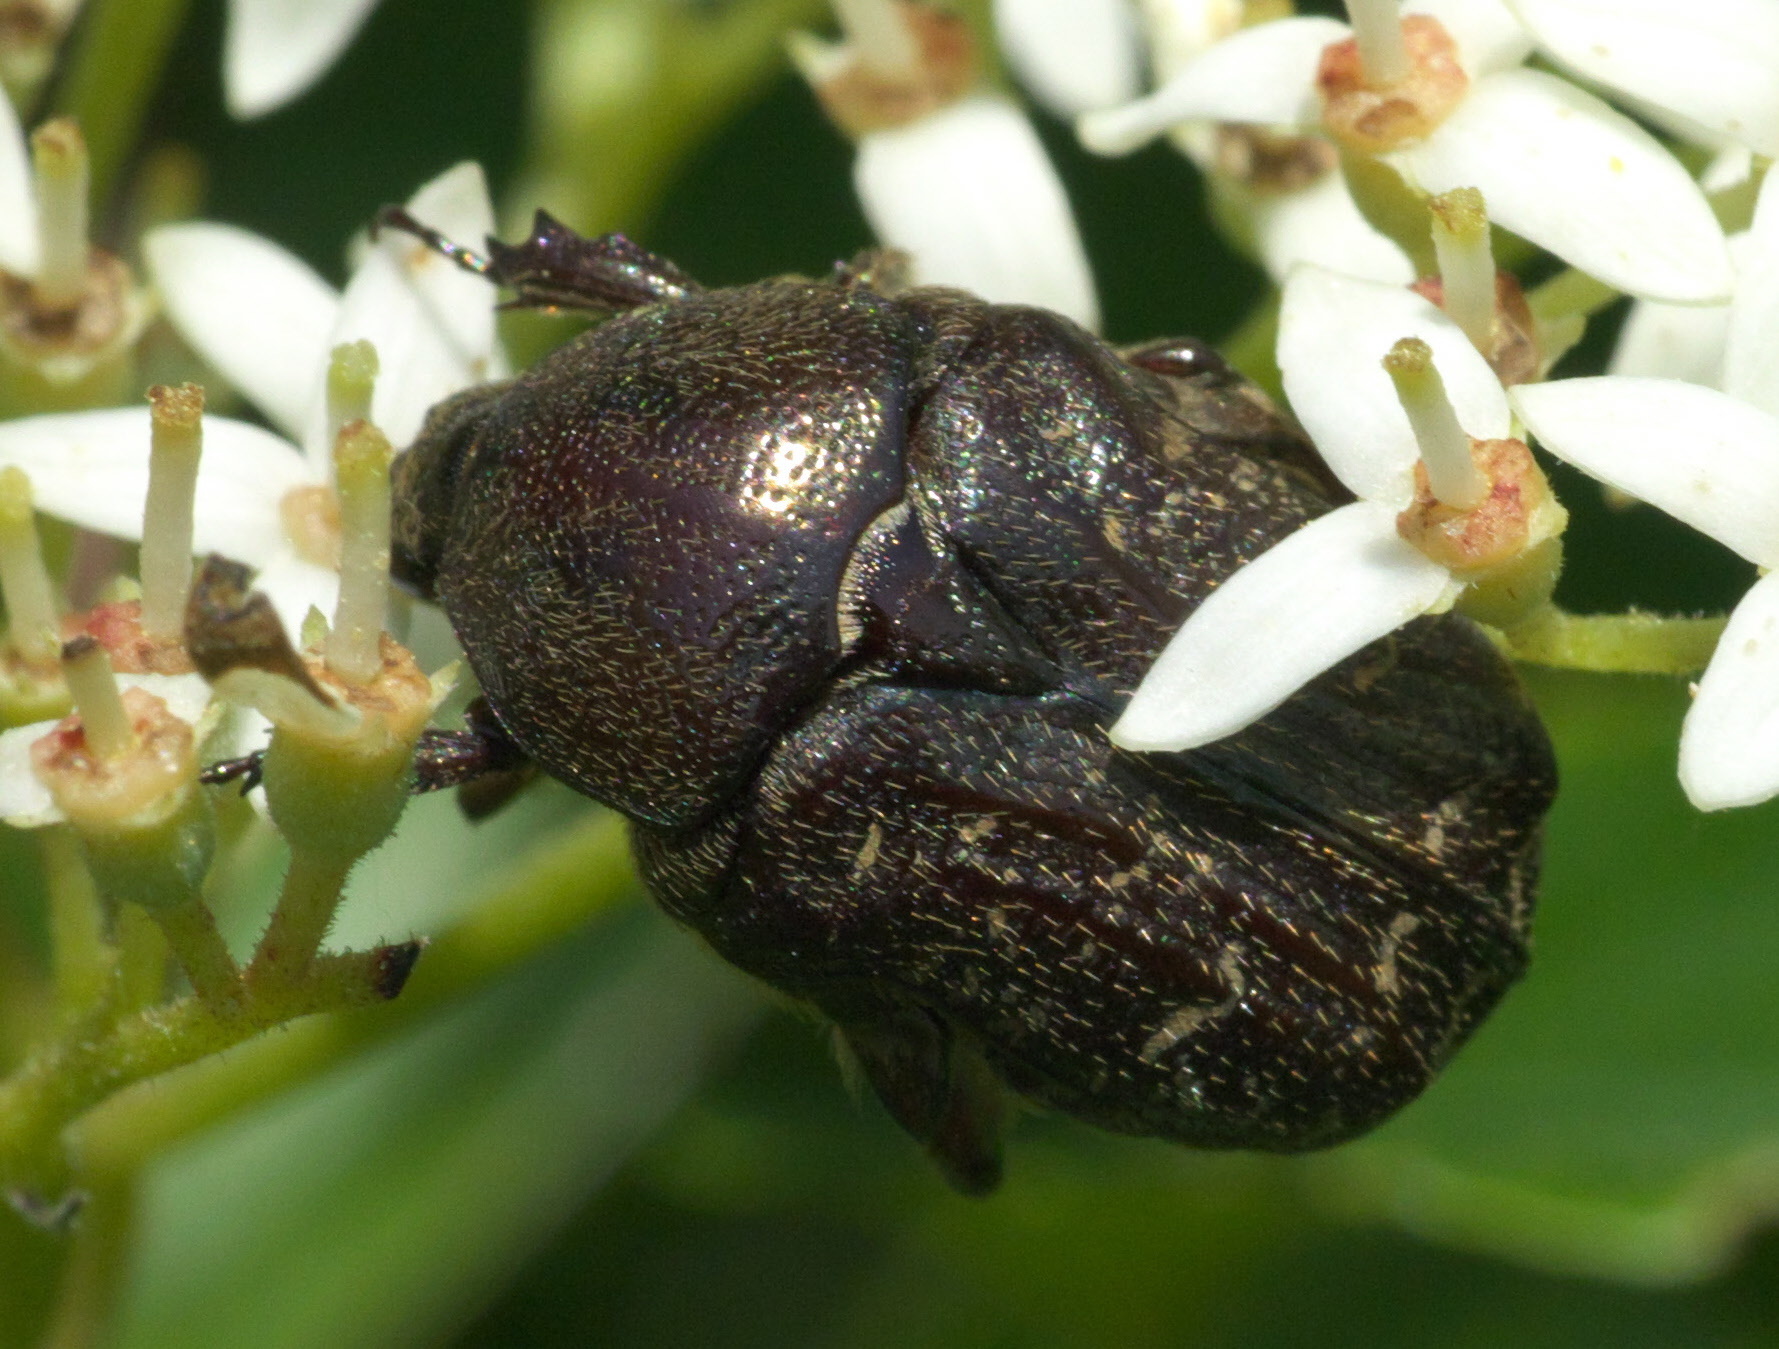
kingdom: Animalia
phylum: Arthropoda
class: Insecta
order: Coleoptera
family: Scarabaeidae
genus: Euphoria
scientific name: Euphoria sepulcralis
